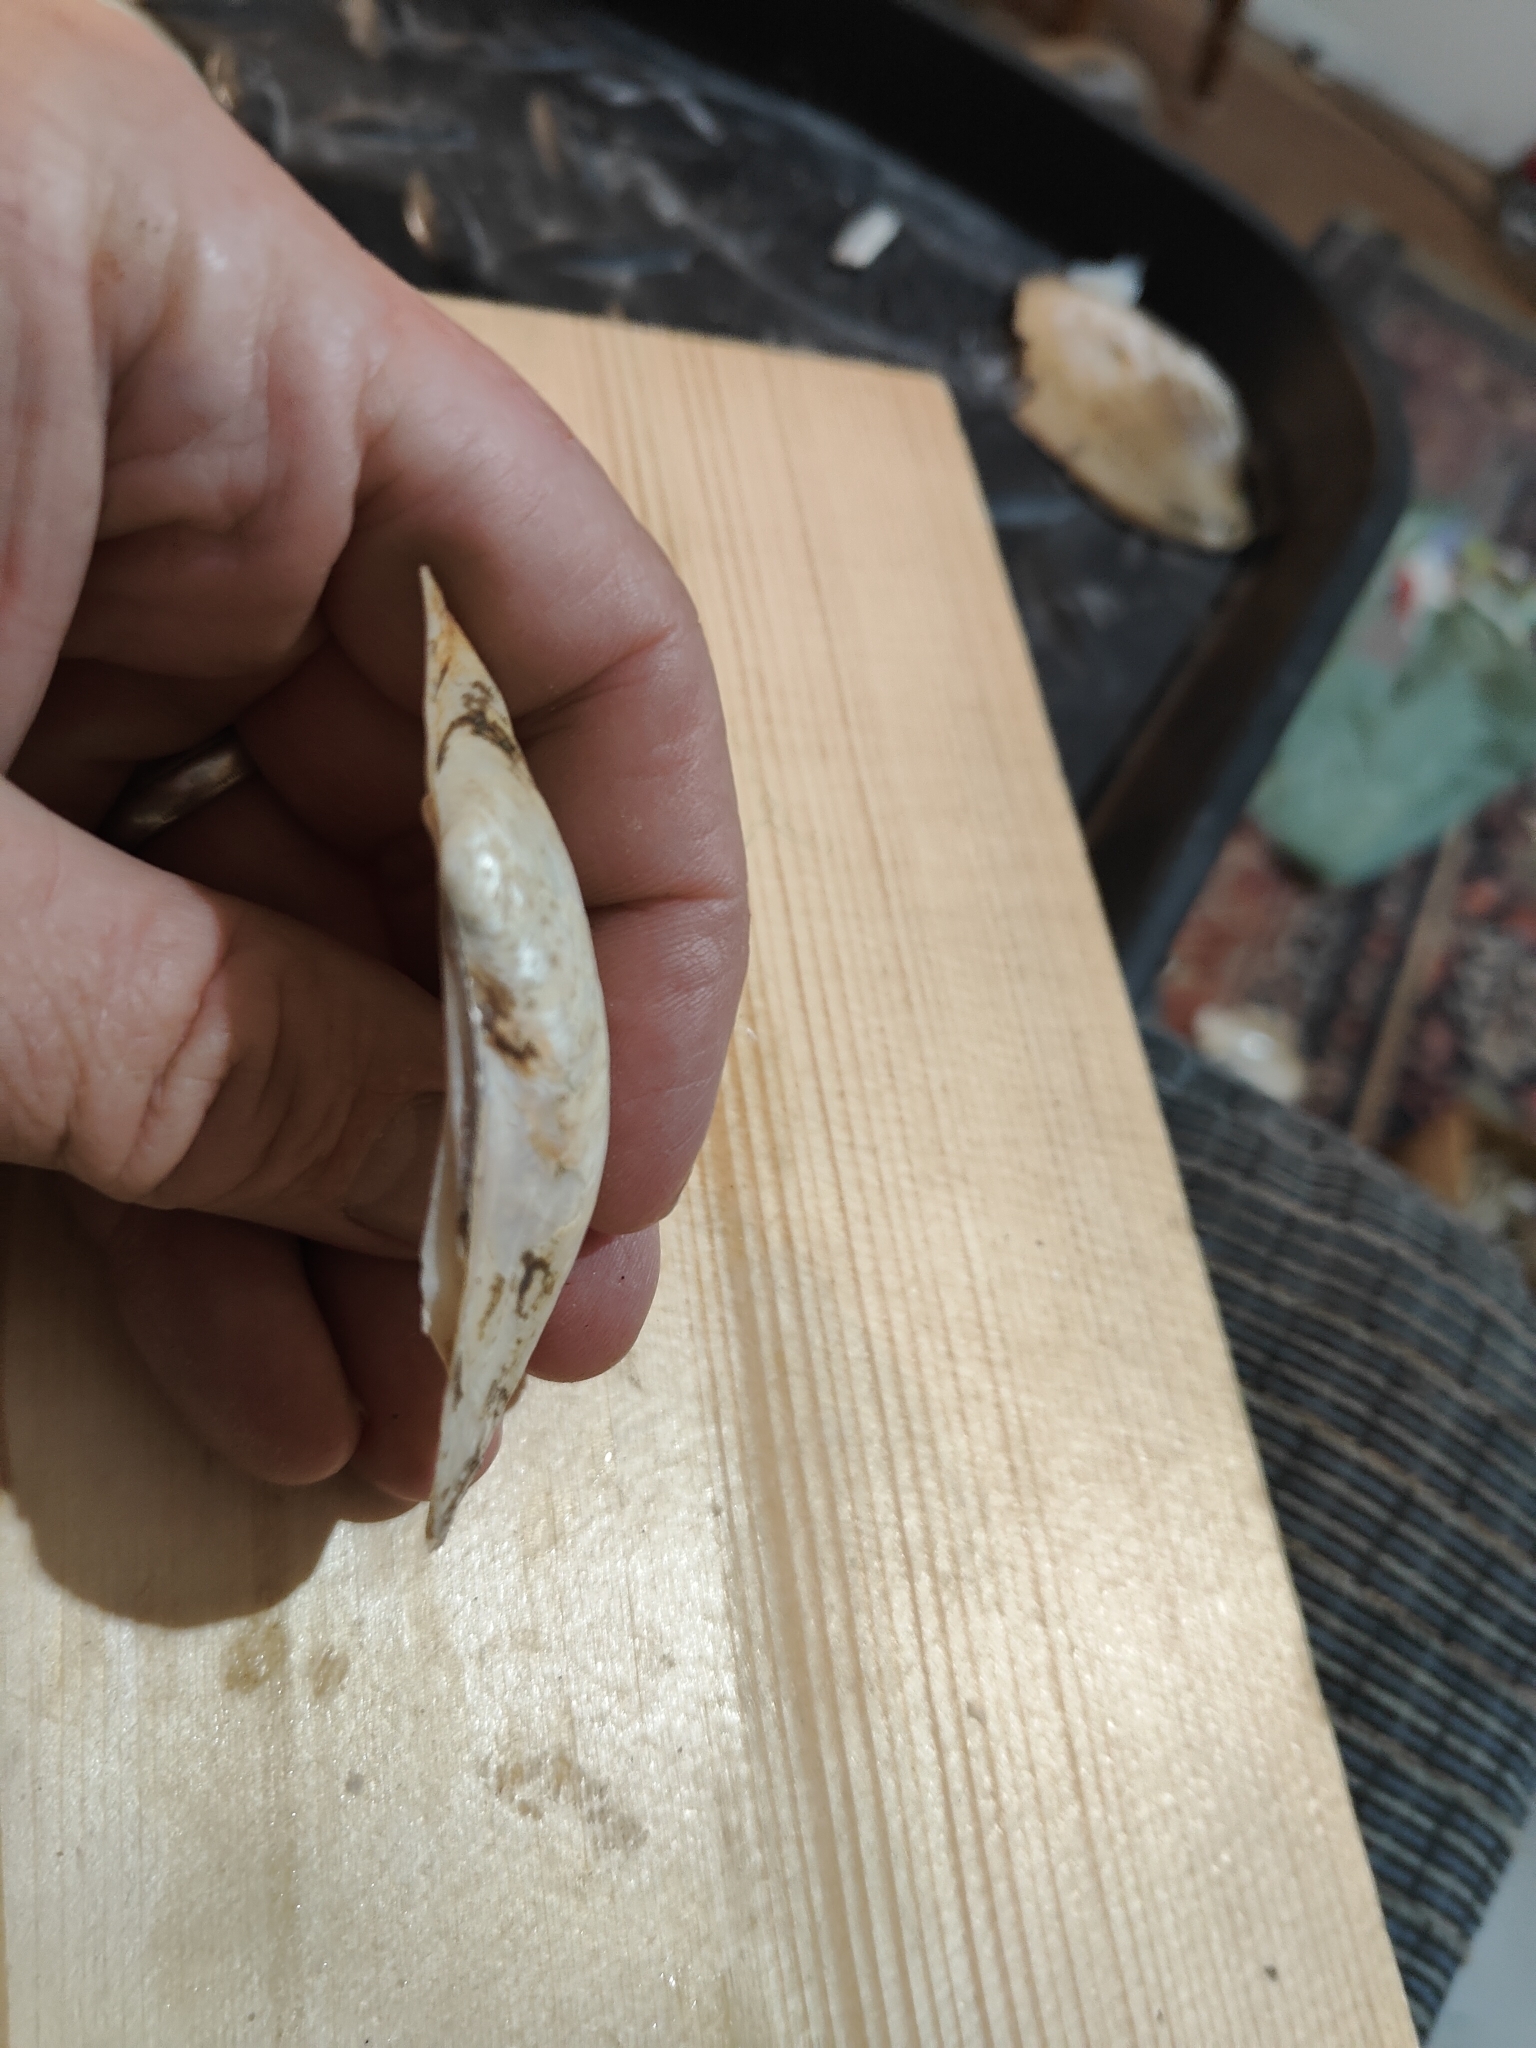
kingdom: Animalia
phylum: Mollusca
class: Bivalvia
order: Unionida
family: Unionidae
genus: Potamilus
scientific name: Potamilus fragilis
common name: Fragile papershell
